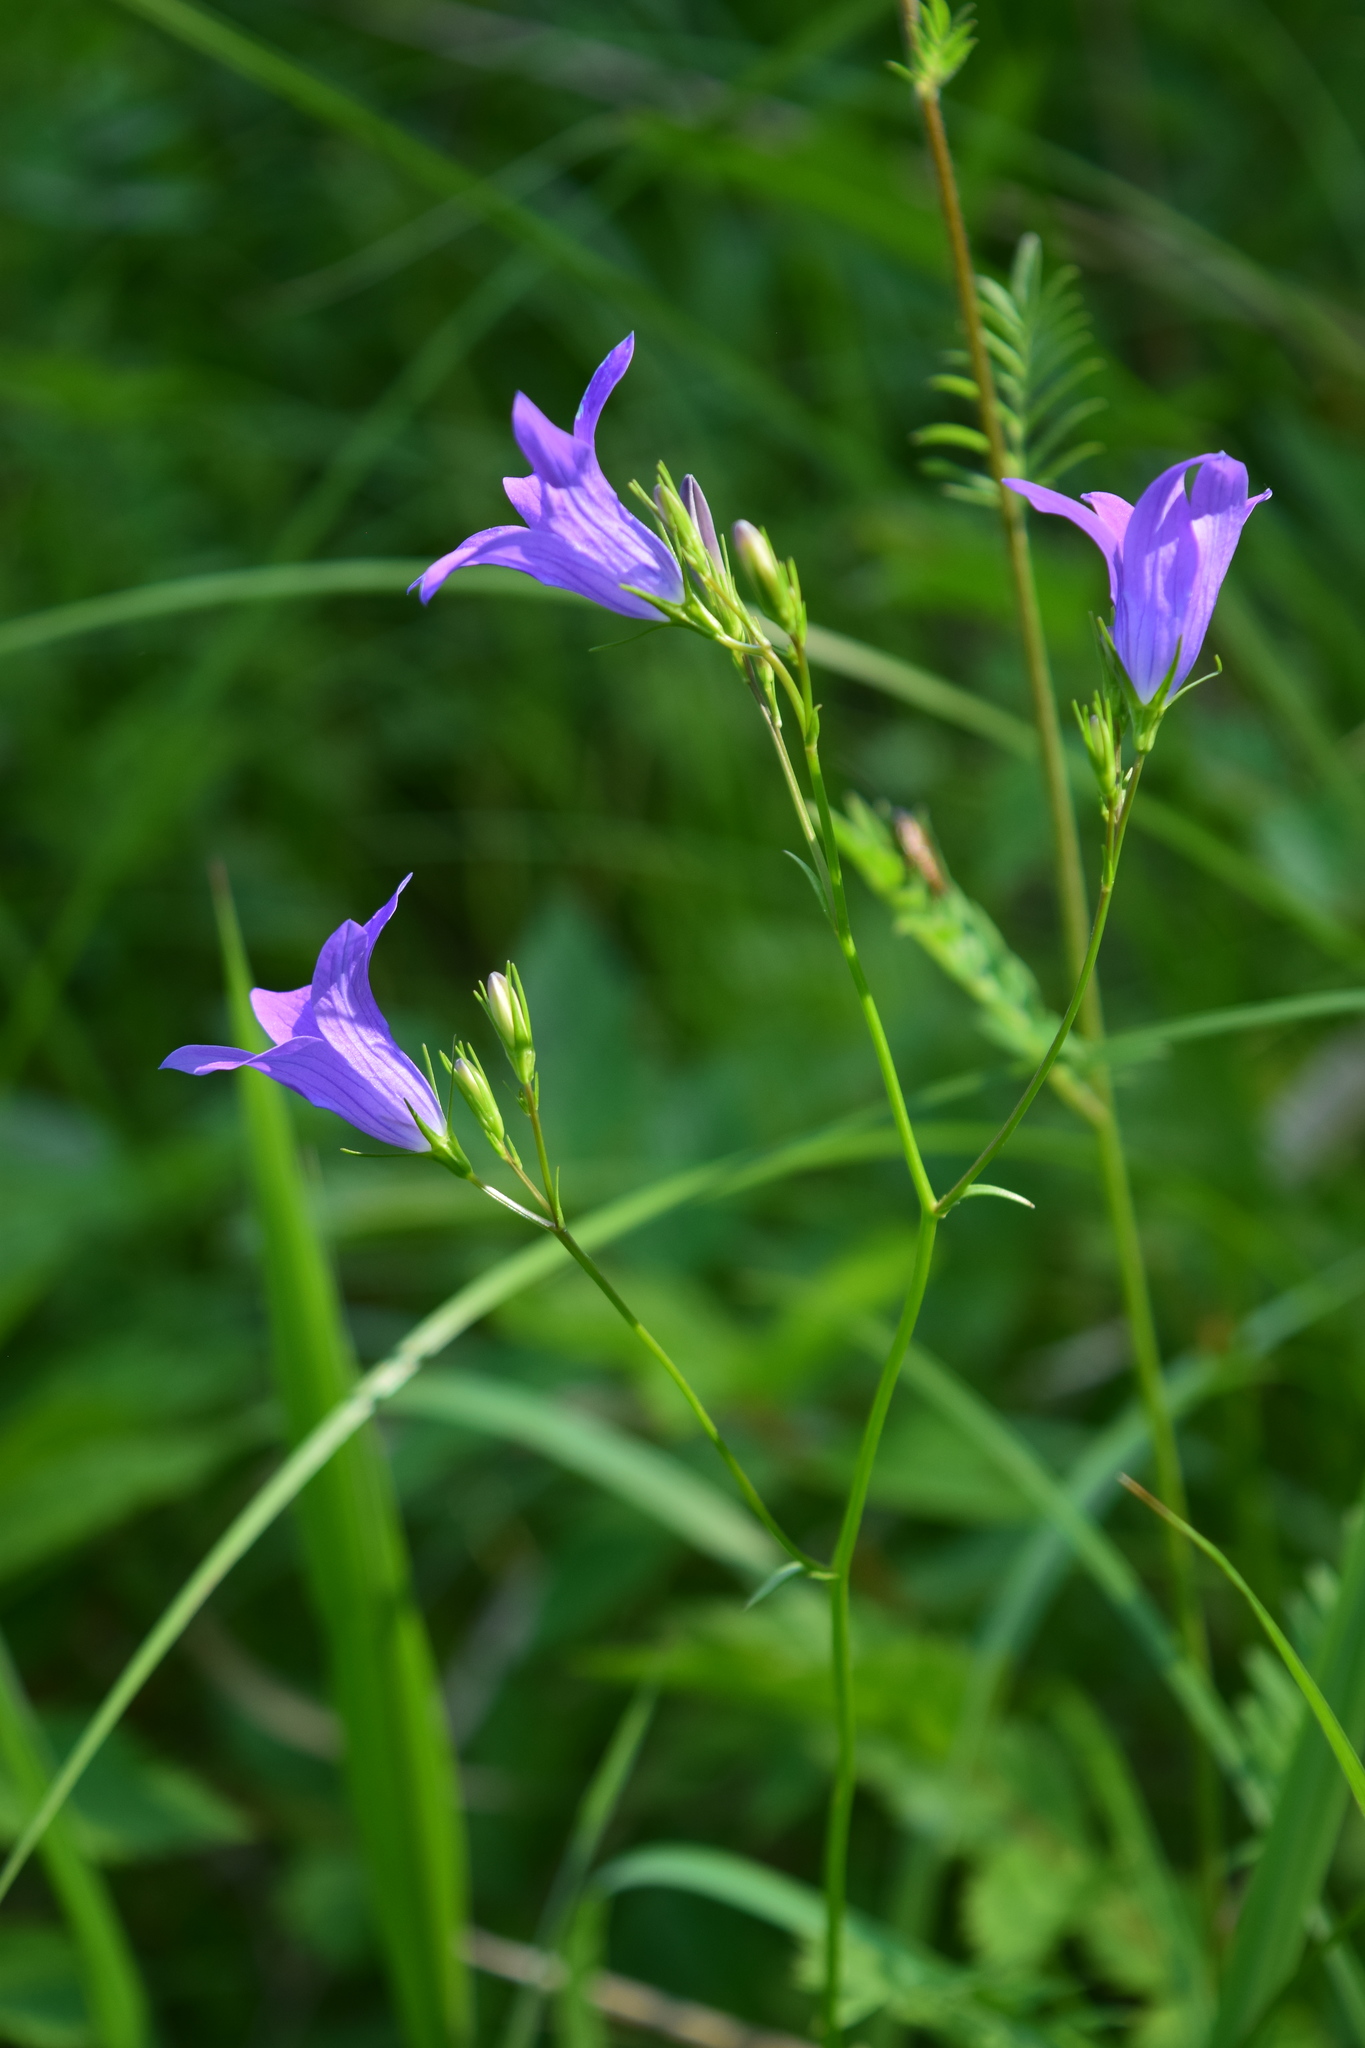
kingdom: Plantae
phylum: Tracheophyta
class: Magnoliopsida
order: Asterales
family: Campanulaceae
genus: Campanula
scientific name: Campanula patula
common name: Spreading bellflower
